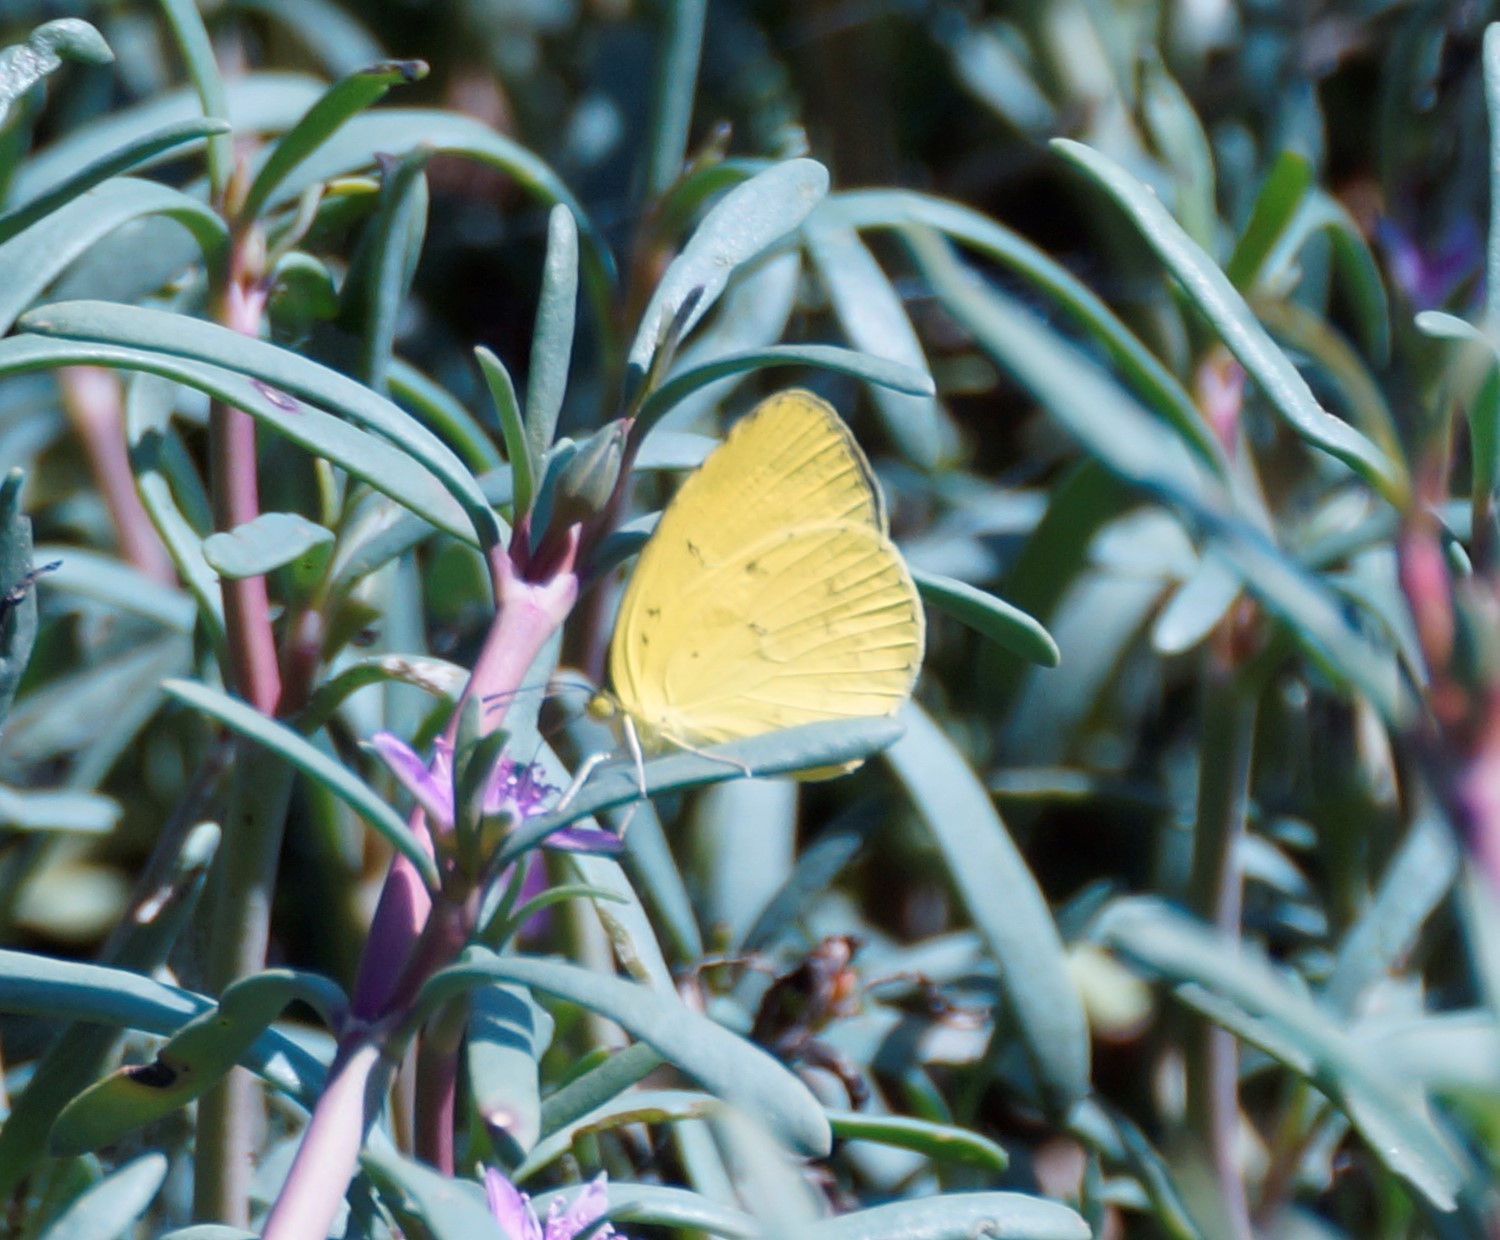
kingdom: Animalia
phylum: Arthropoda
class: Insecta
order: Lepidoptera
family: Pieridae
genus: Eurema
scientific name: Eurema hecabe
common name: Pale grass yellow
